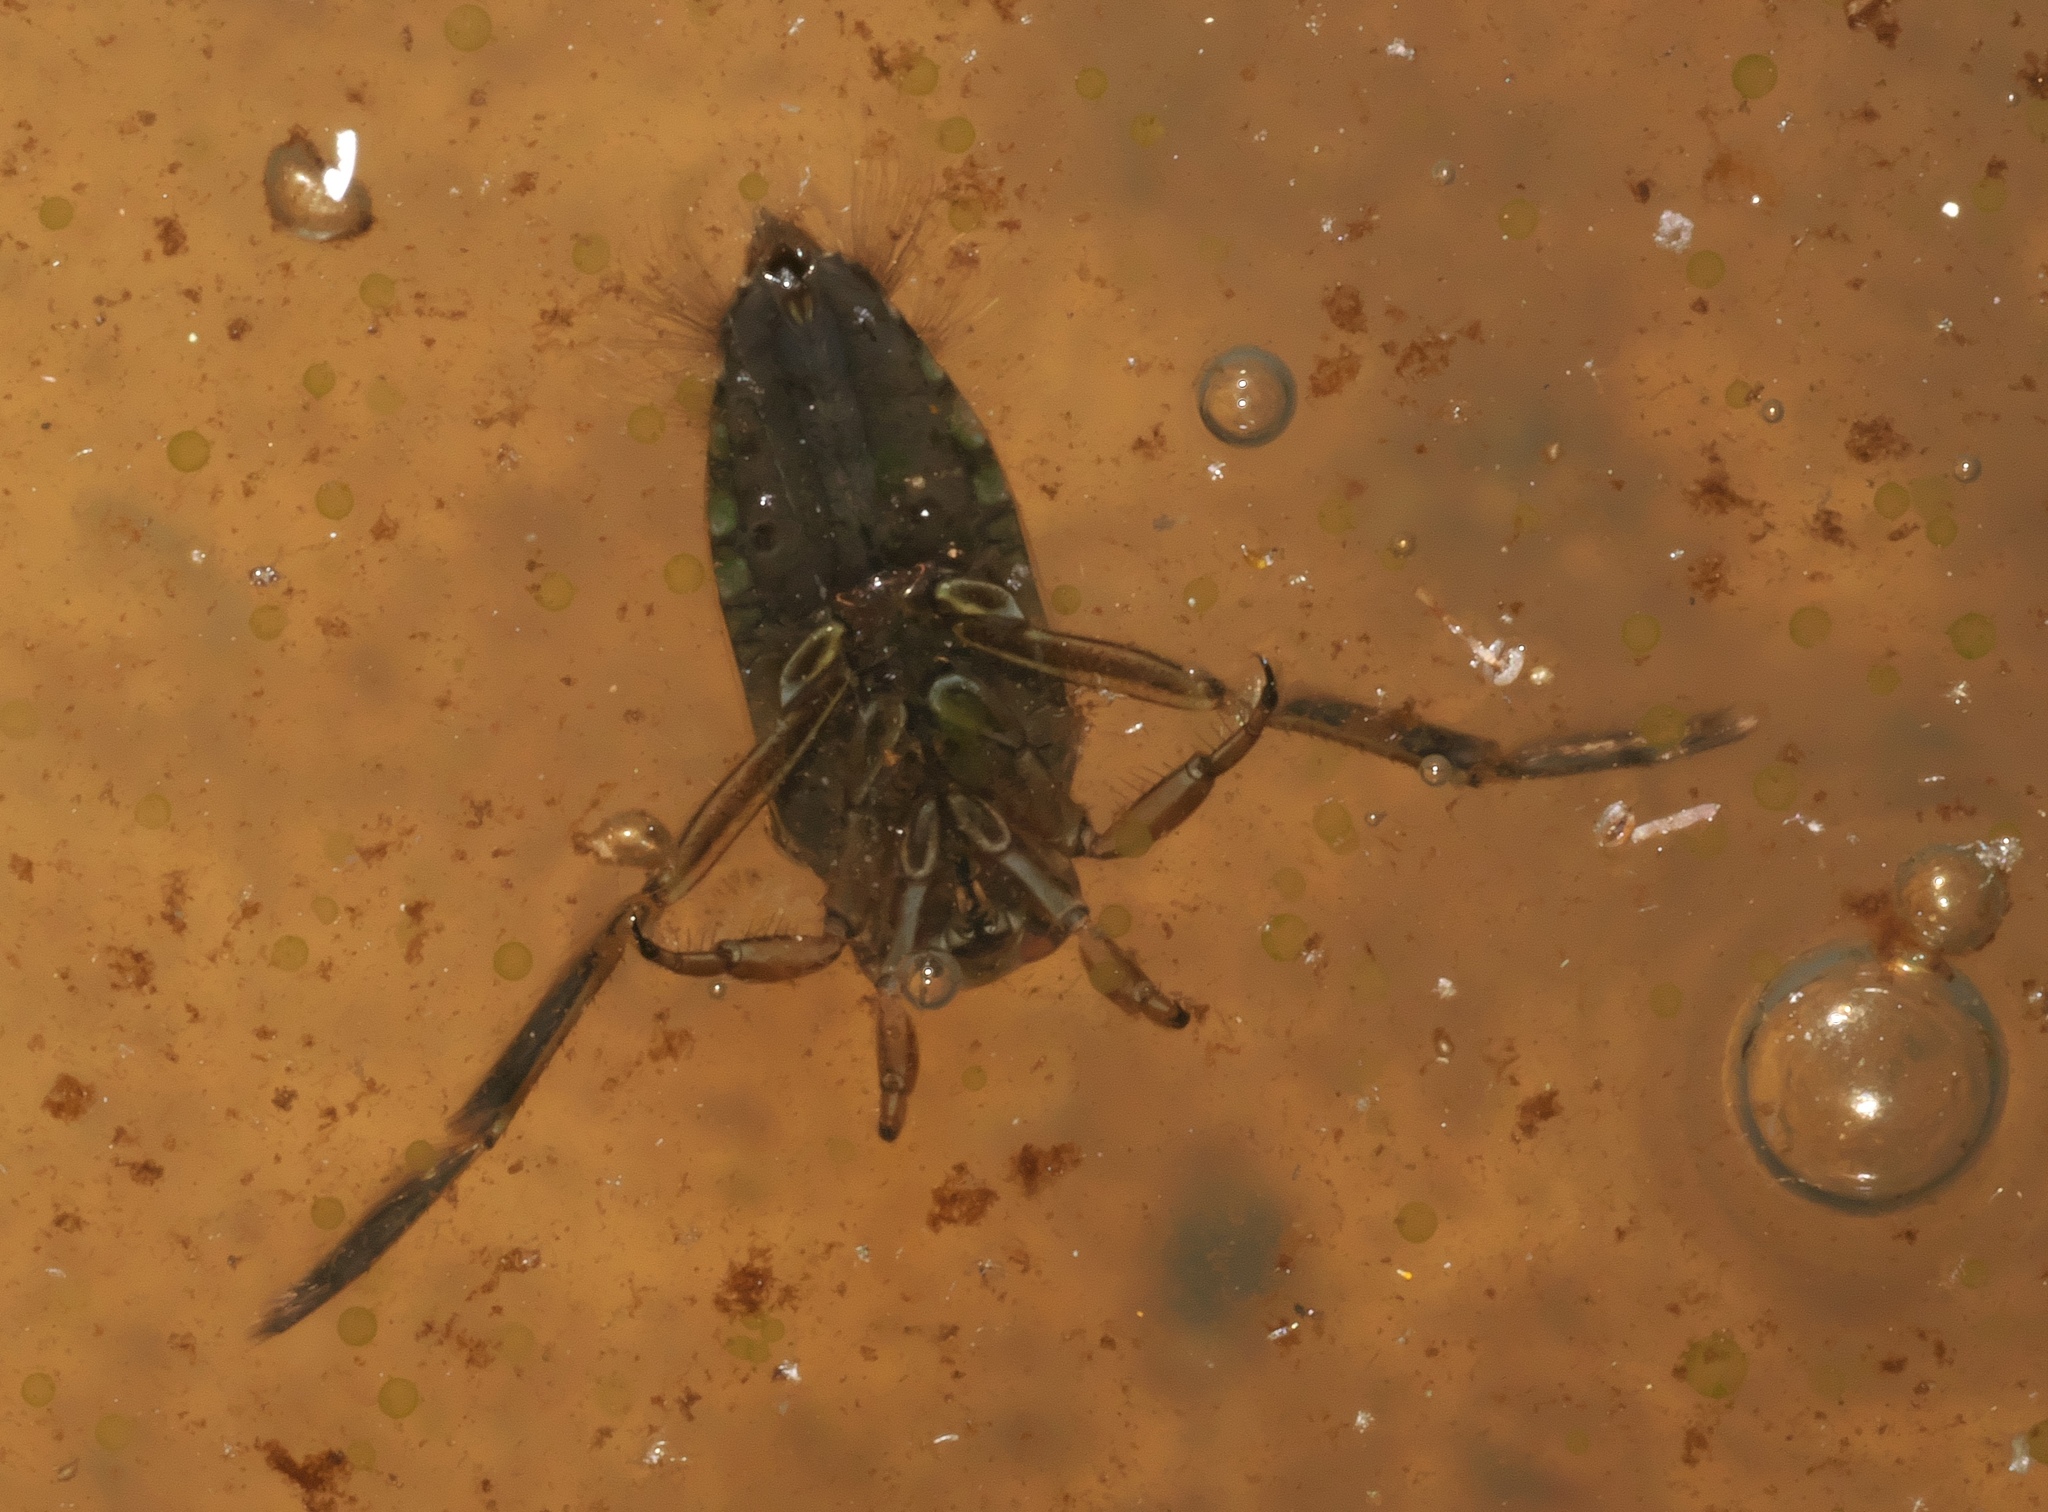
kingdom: Animalia
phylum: Arthropoda
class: Insecta
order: Hemiptera
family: Notonectidae
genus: Notonecta
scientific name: Notonecta
